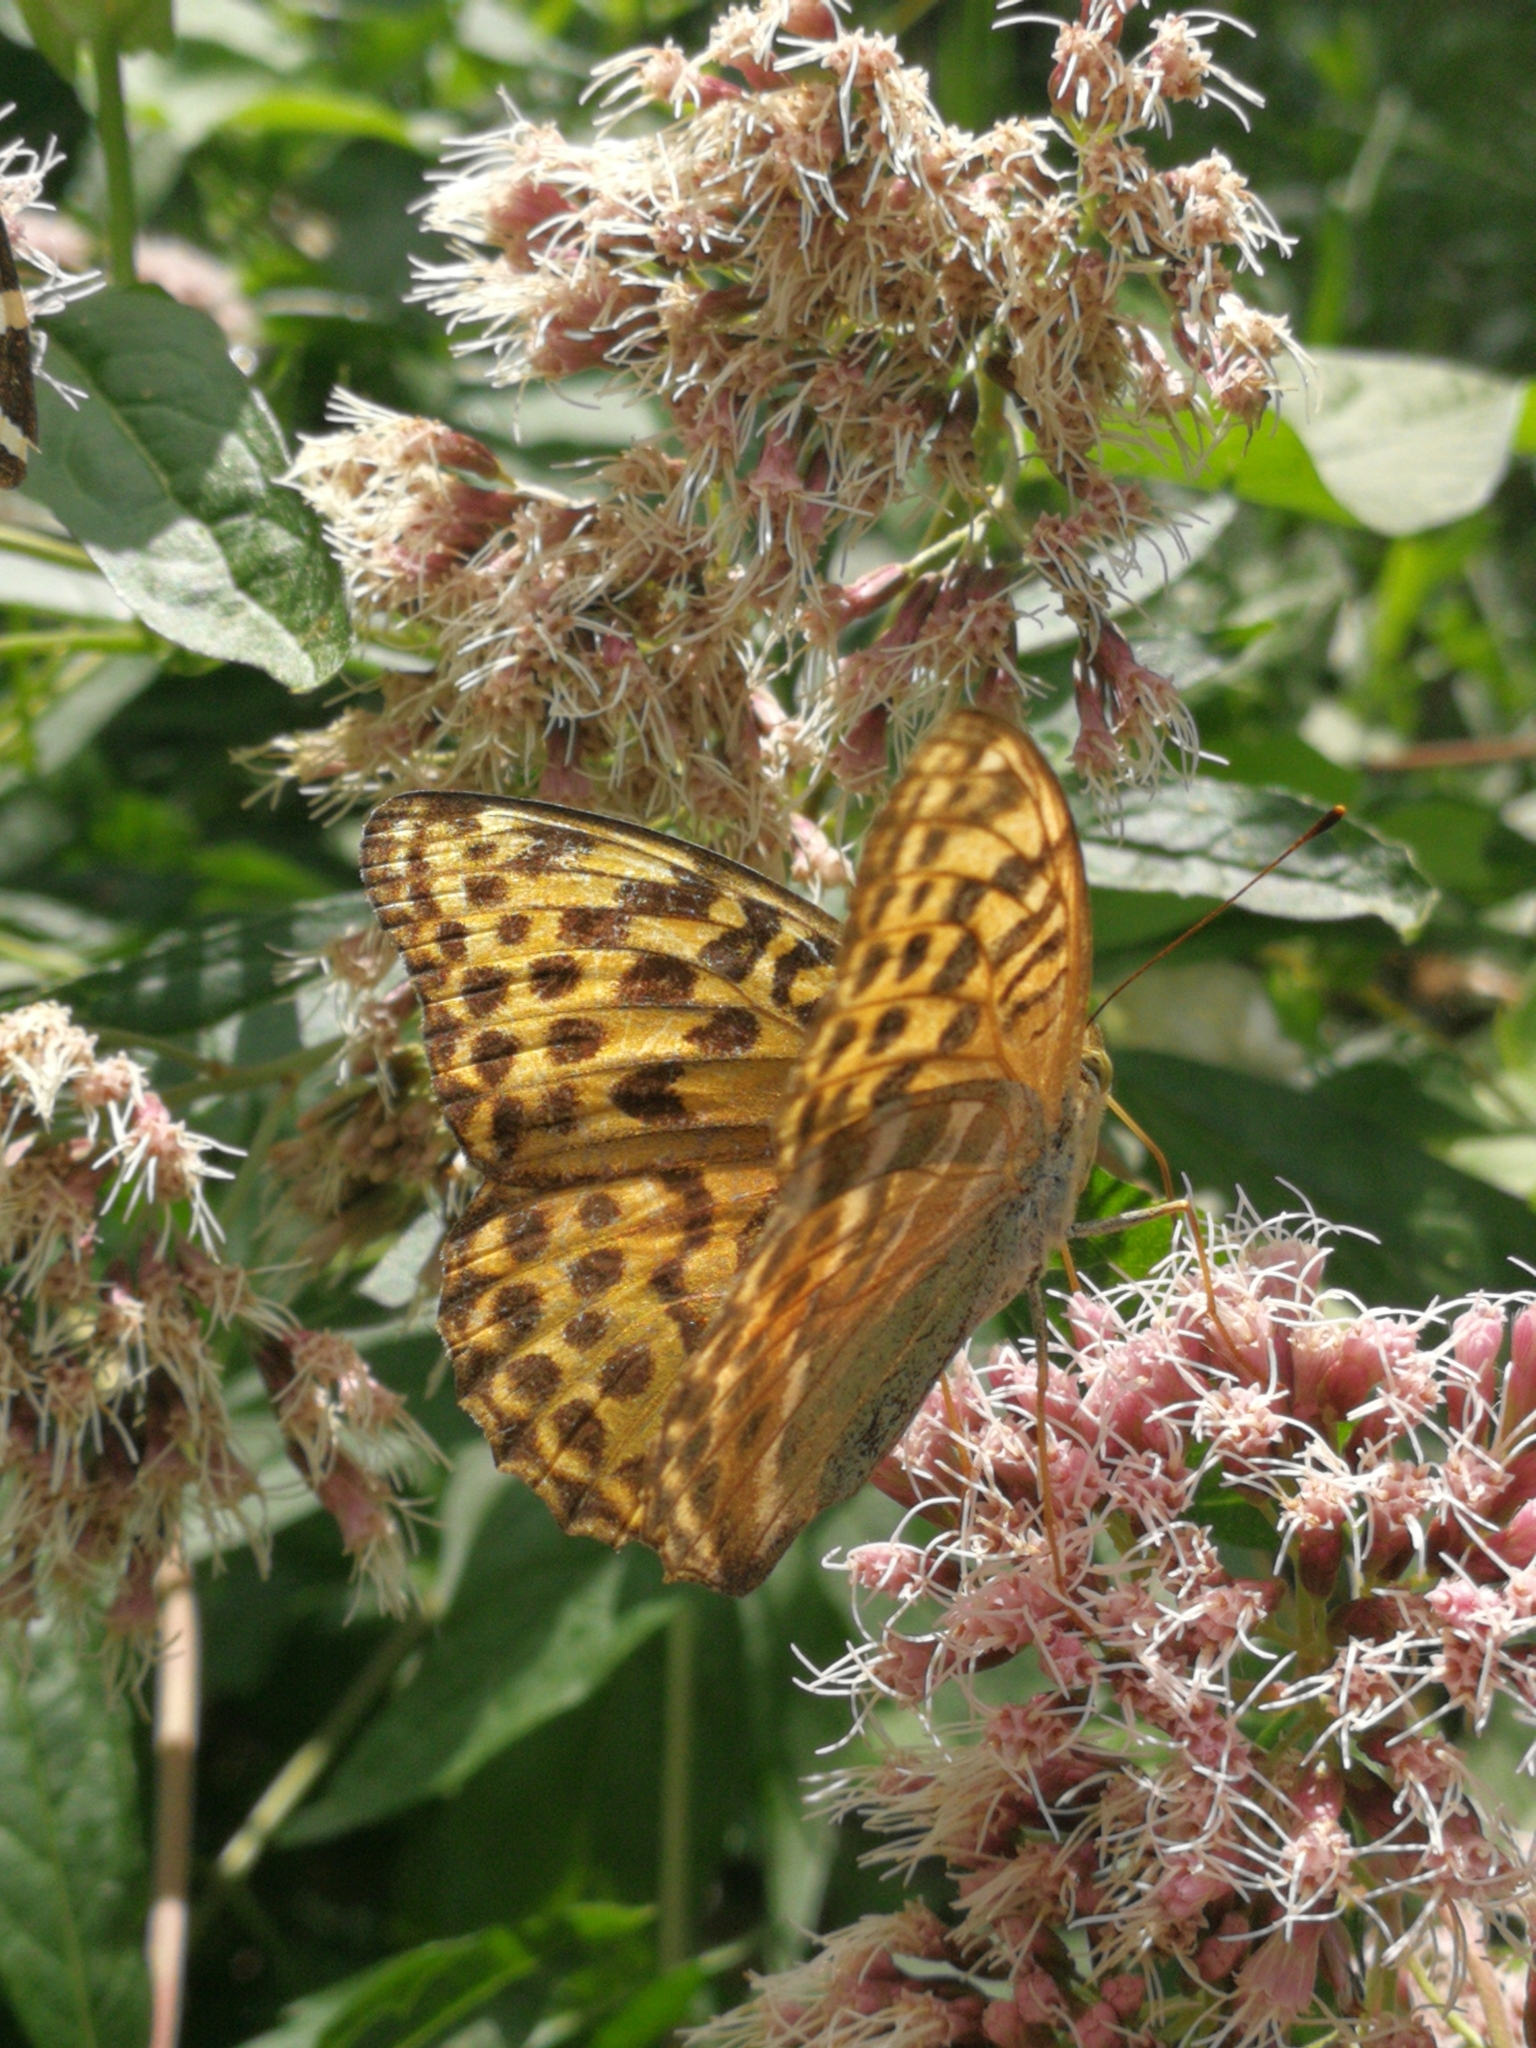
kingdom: Animalia
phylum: Arthropoda
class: Insecta
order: Lepidoptera
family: Nymphalidae
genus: Argynnis
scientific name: Argynnis paphia
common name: Silver-washed fritillary
